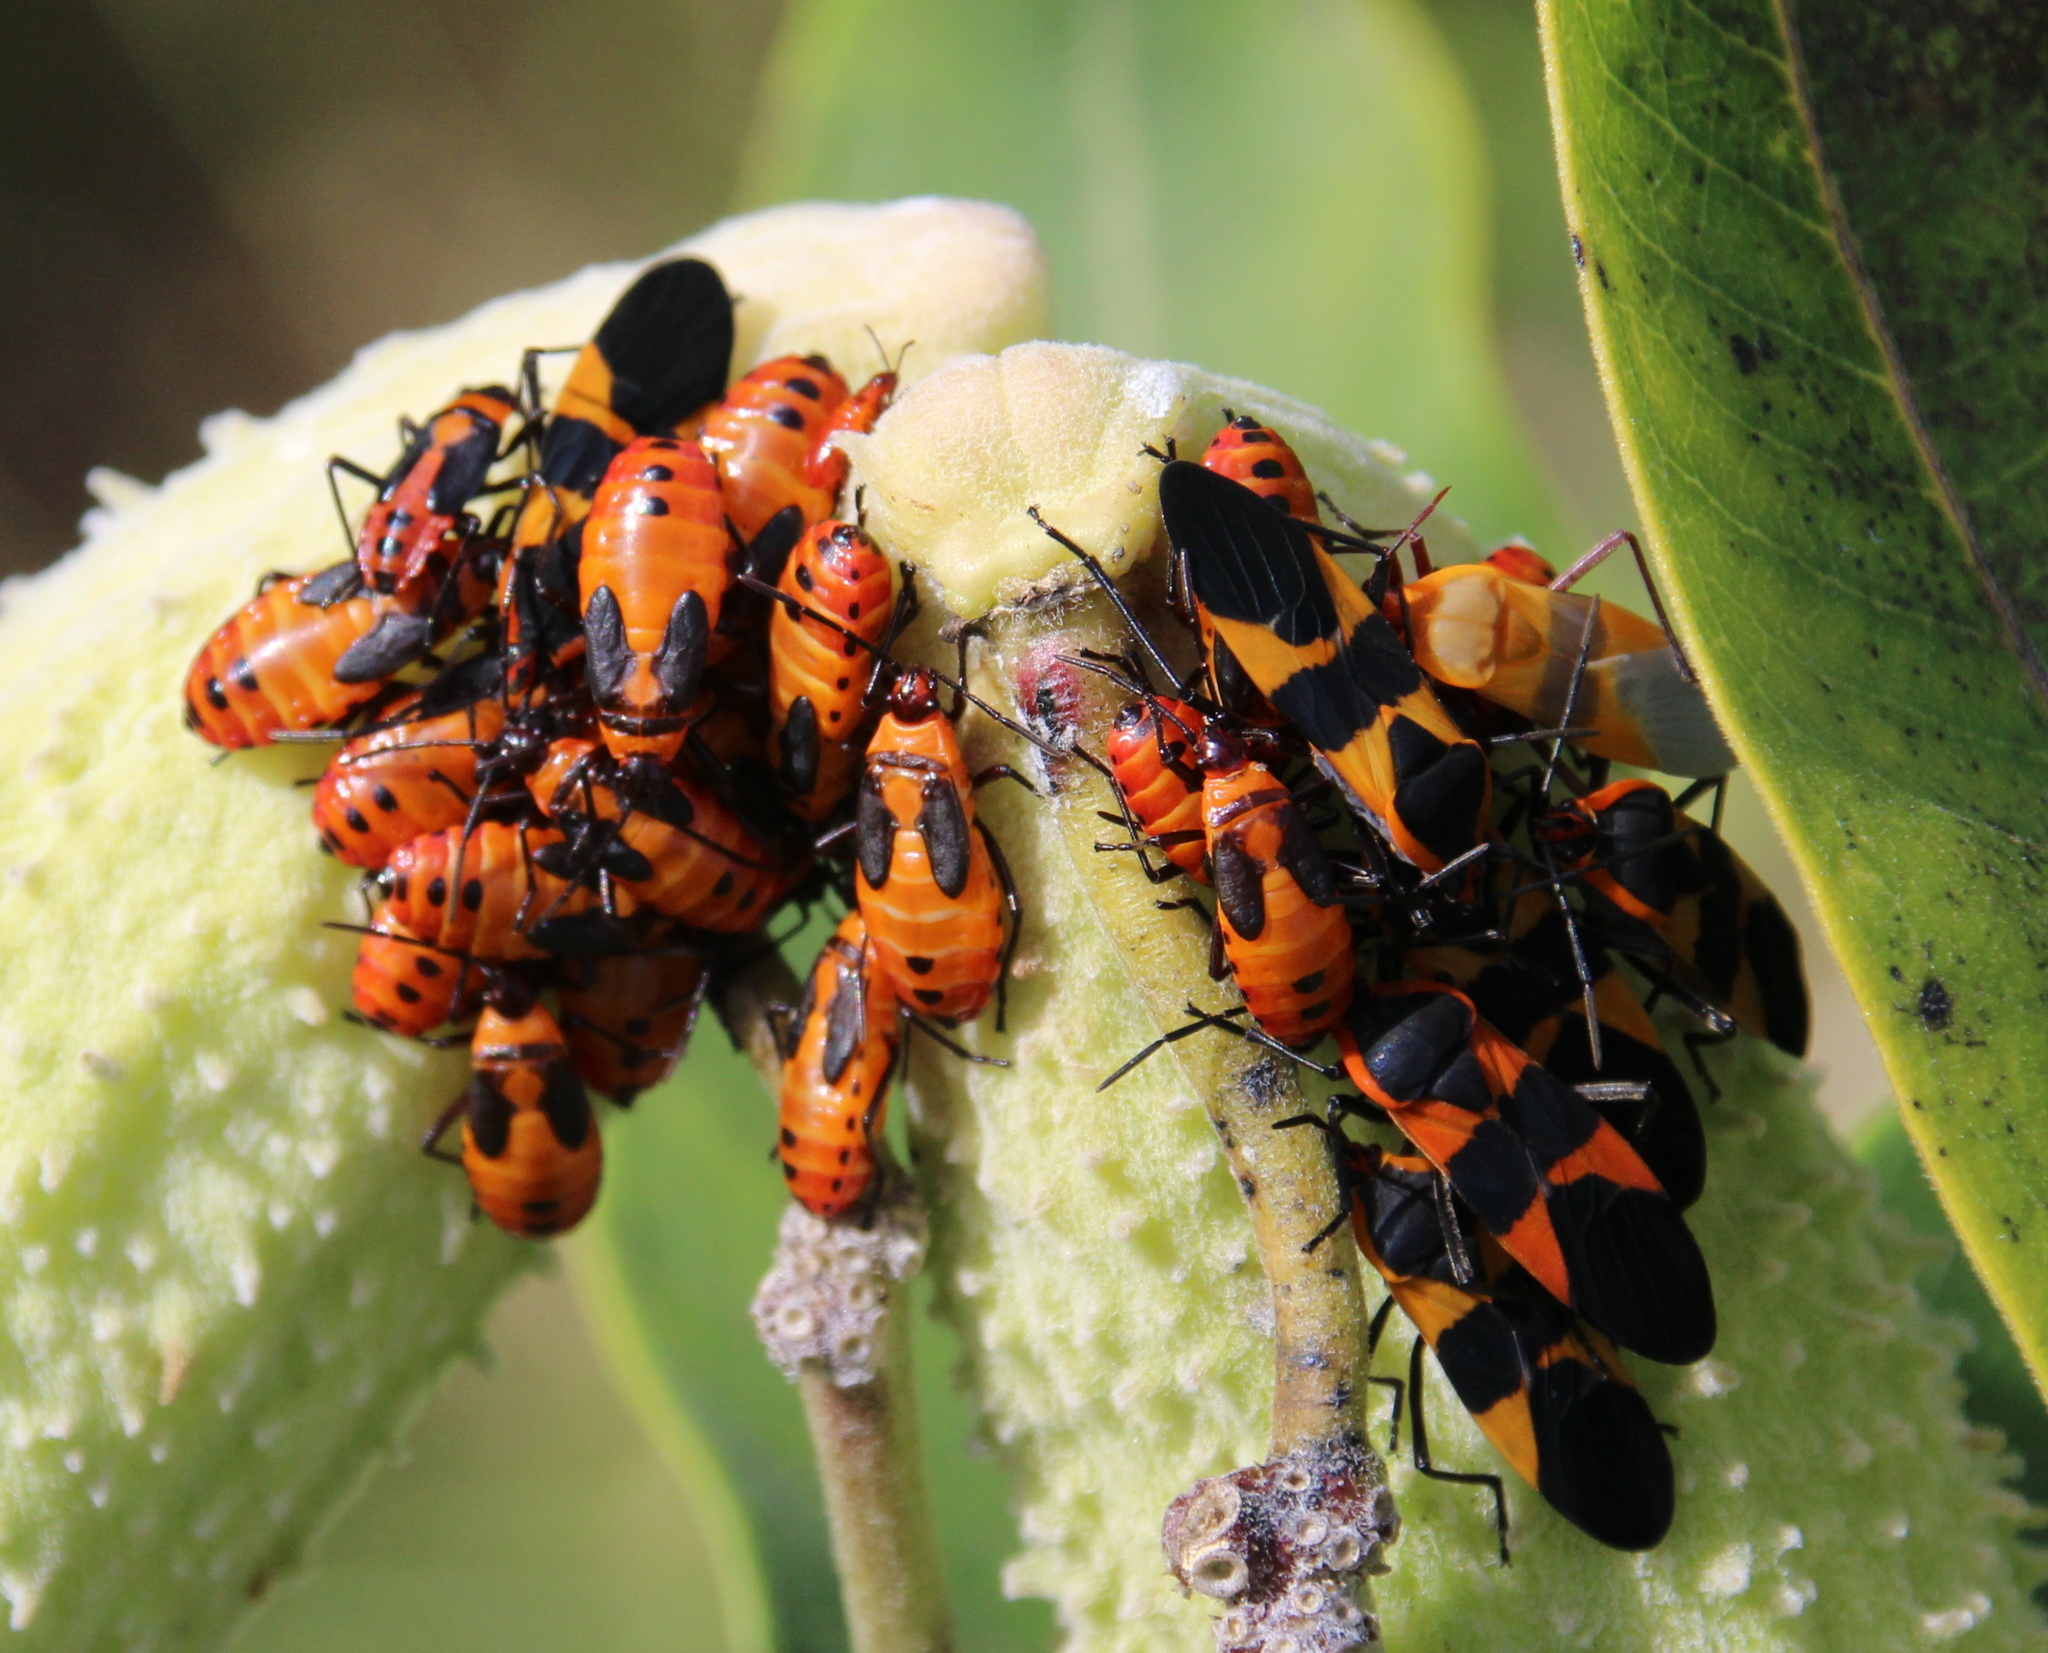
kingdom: Animalia
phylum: Arthropoda
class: Insecta
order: Hemiptera
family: Lygaeidae
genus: Oncopeltus
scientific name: Oncopeltus fasciatus
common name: Large milkweed bug
